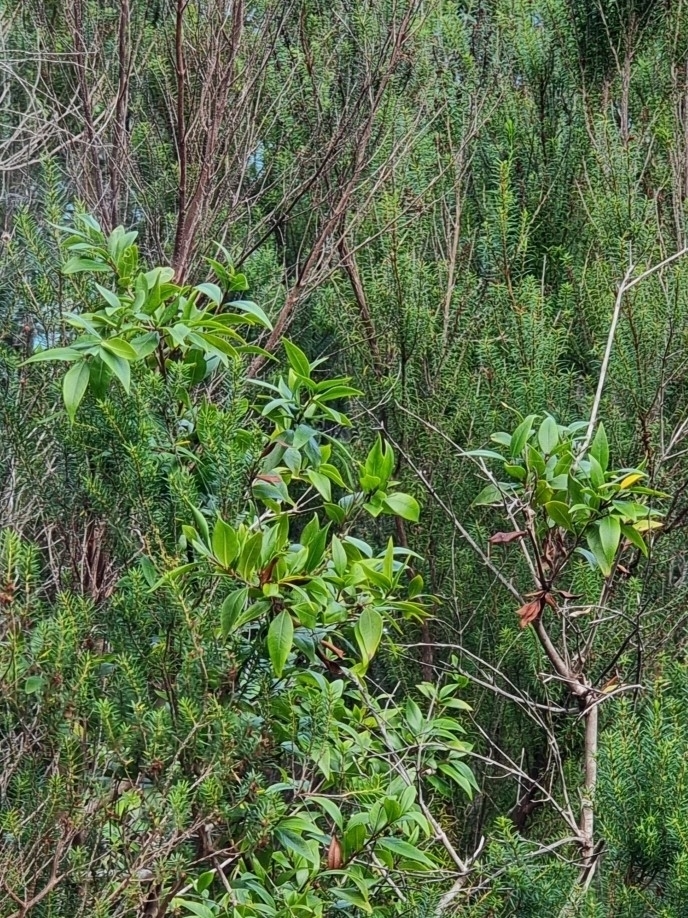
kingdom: Plantae
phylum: Tracheophyta
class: Magnoliopsida
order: Myrtales
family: Myrtaceae
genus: Myrtus
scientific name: Myrtus communis
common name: Myrtle
